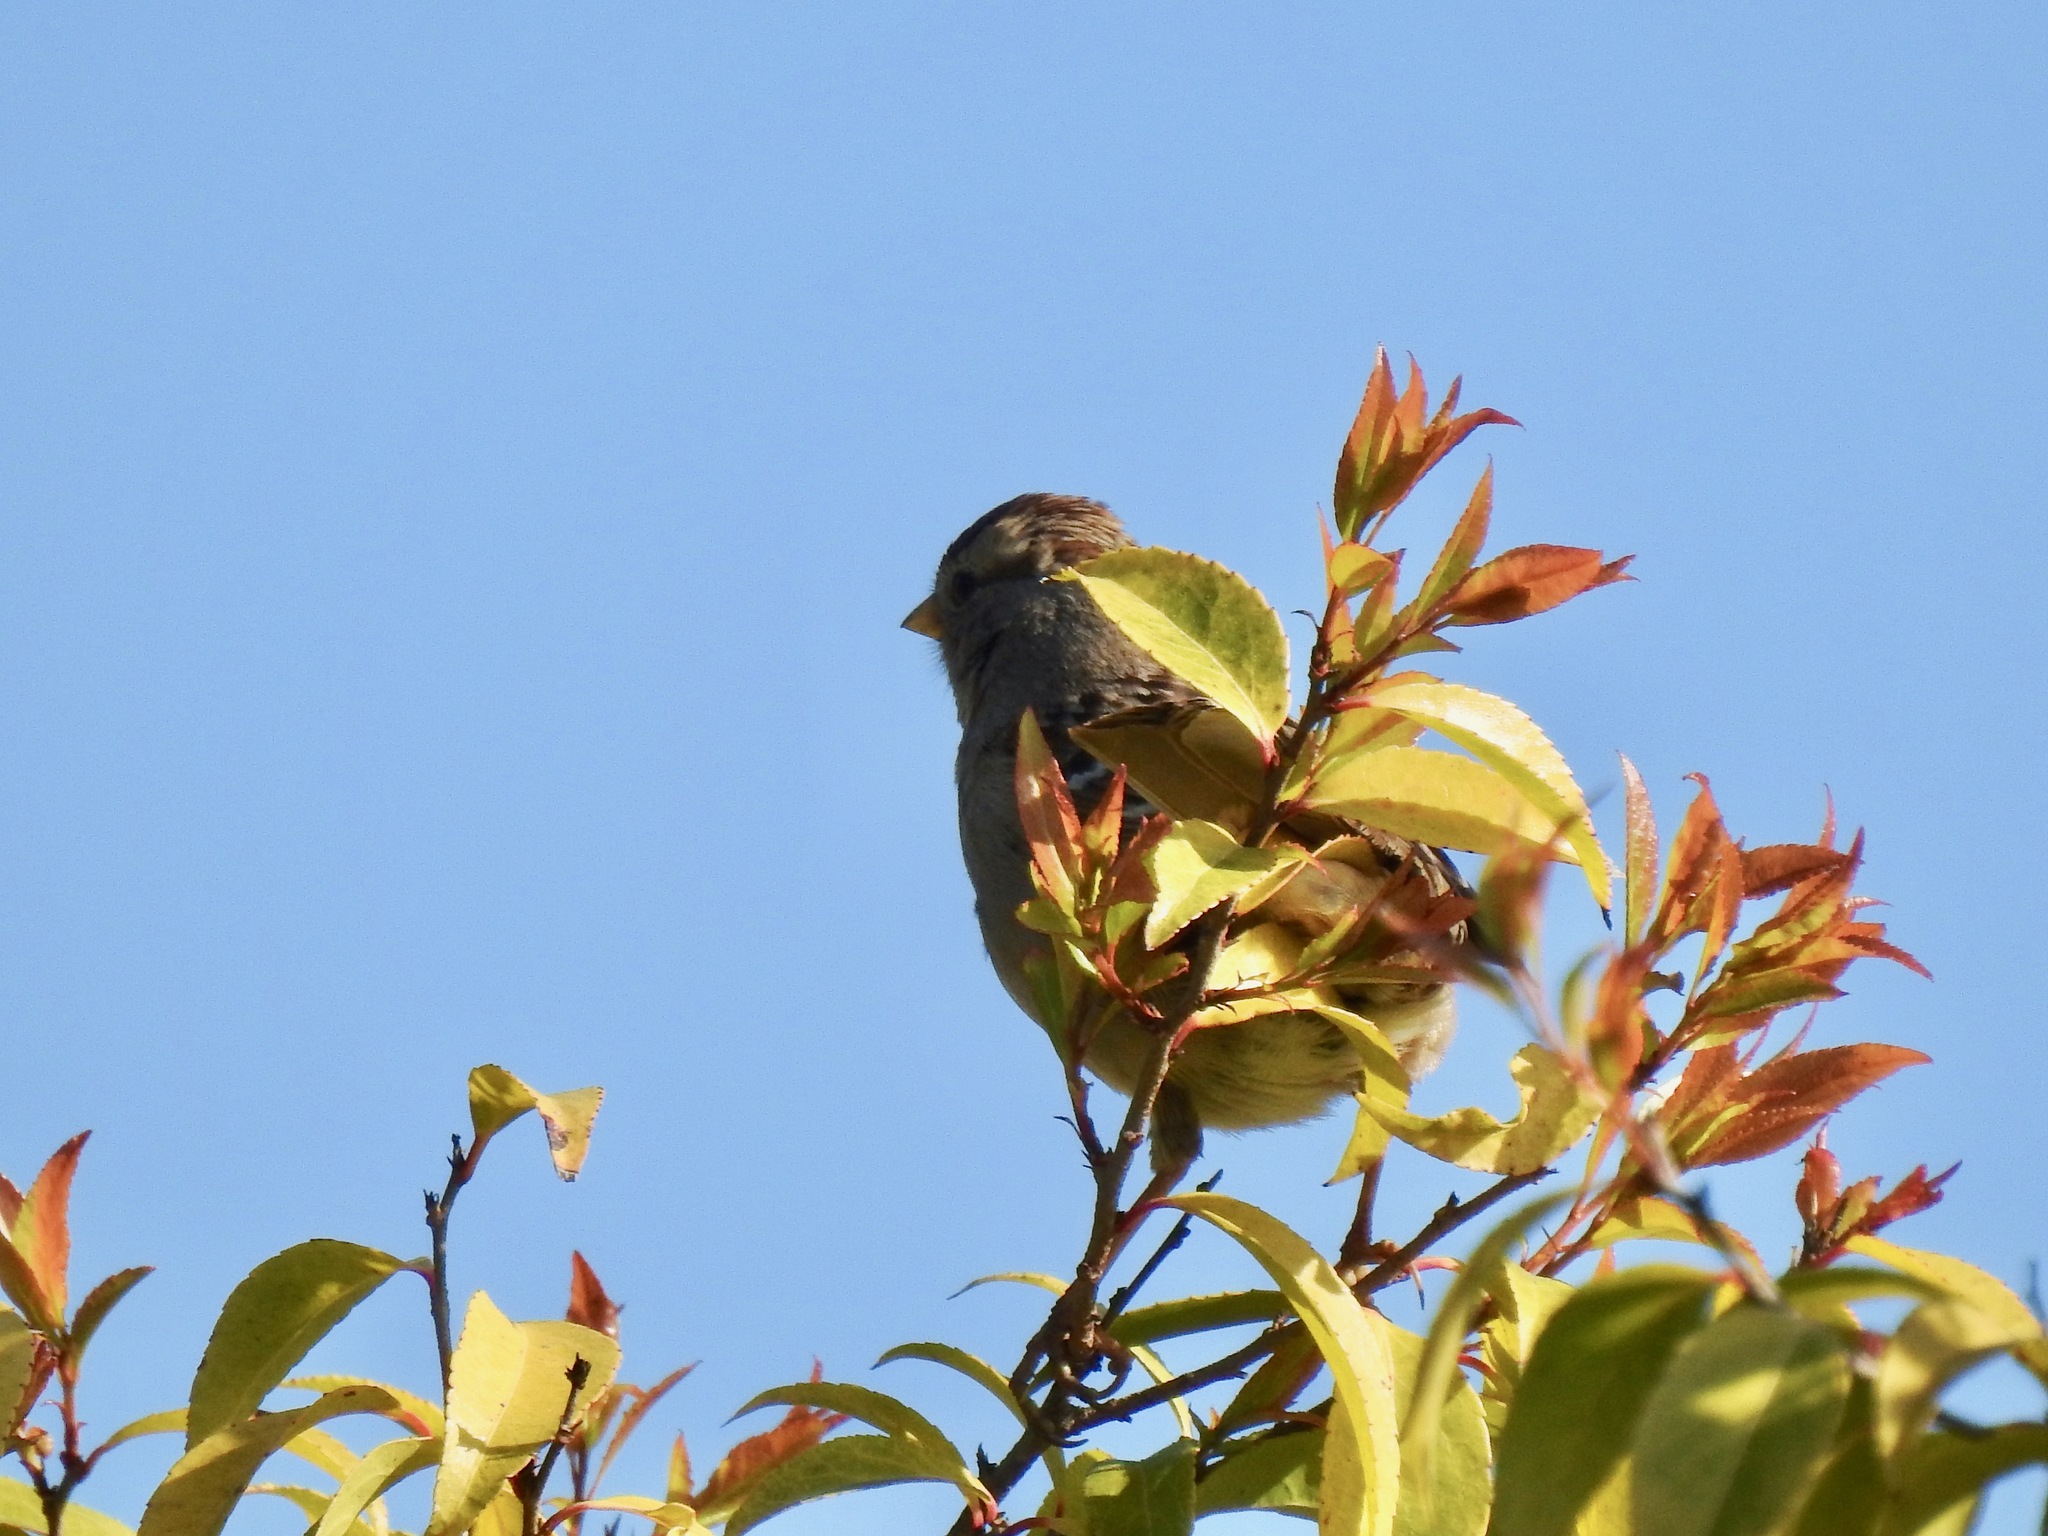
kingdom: Animalia
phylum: Chordata
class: Aves
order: Passeriformes
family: Passerellidae
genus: Zonotrichia
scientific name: Zonotrichia leucophrys
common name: White-crowned sparrow
